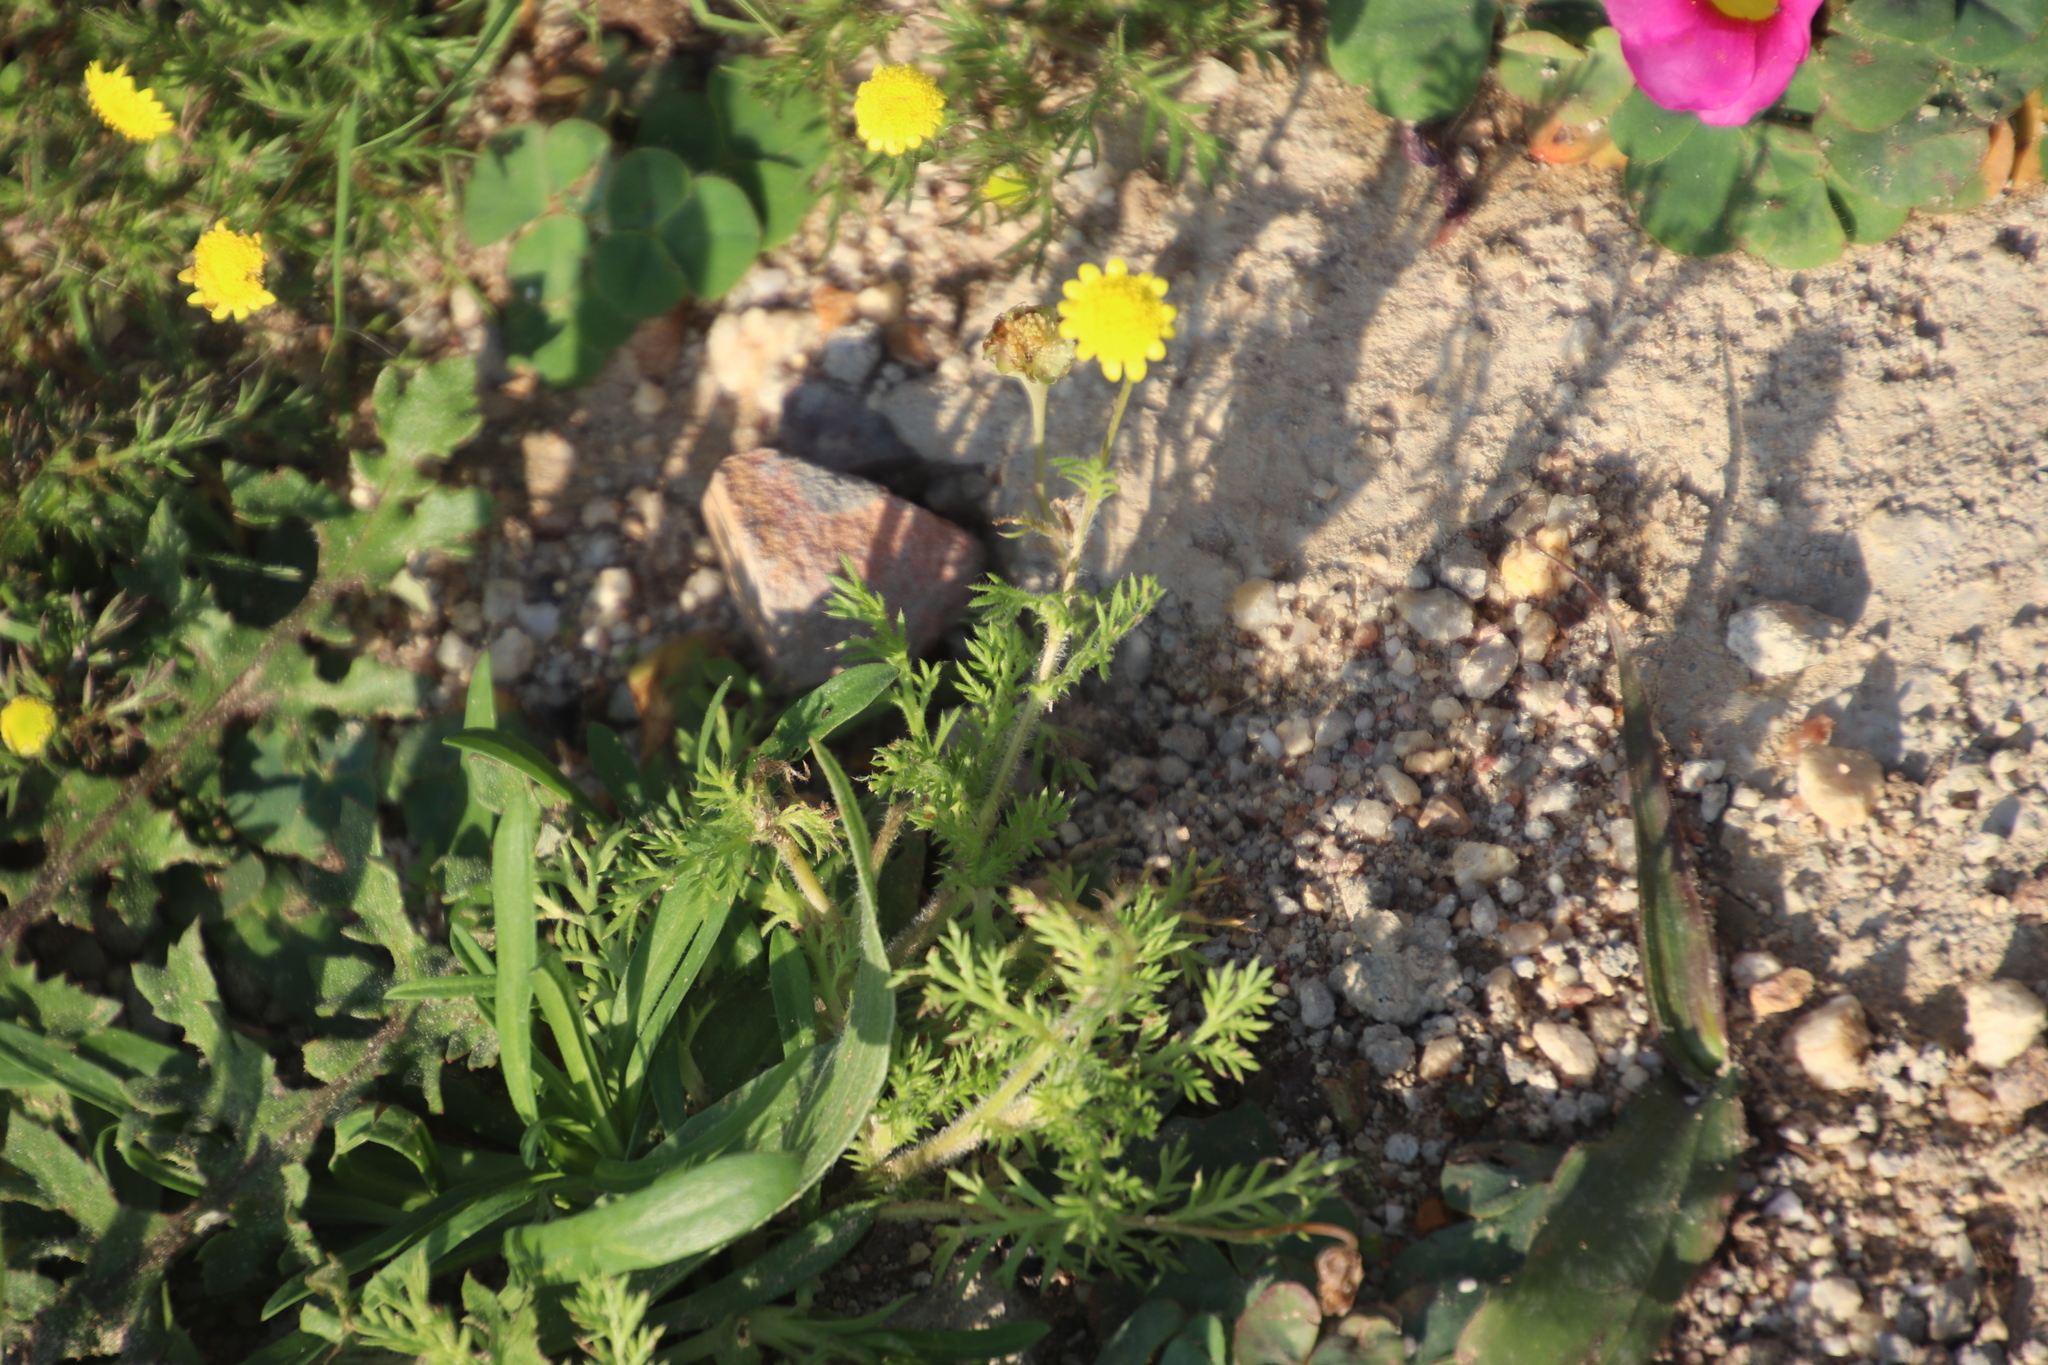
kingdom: Plantae
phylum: Tracheophyta
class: Magnoliopsida
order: Asterales
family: Asteraceae
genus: Cotula
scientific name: Cotula pruinosa
